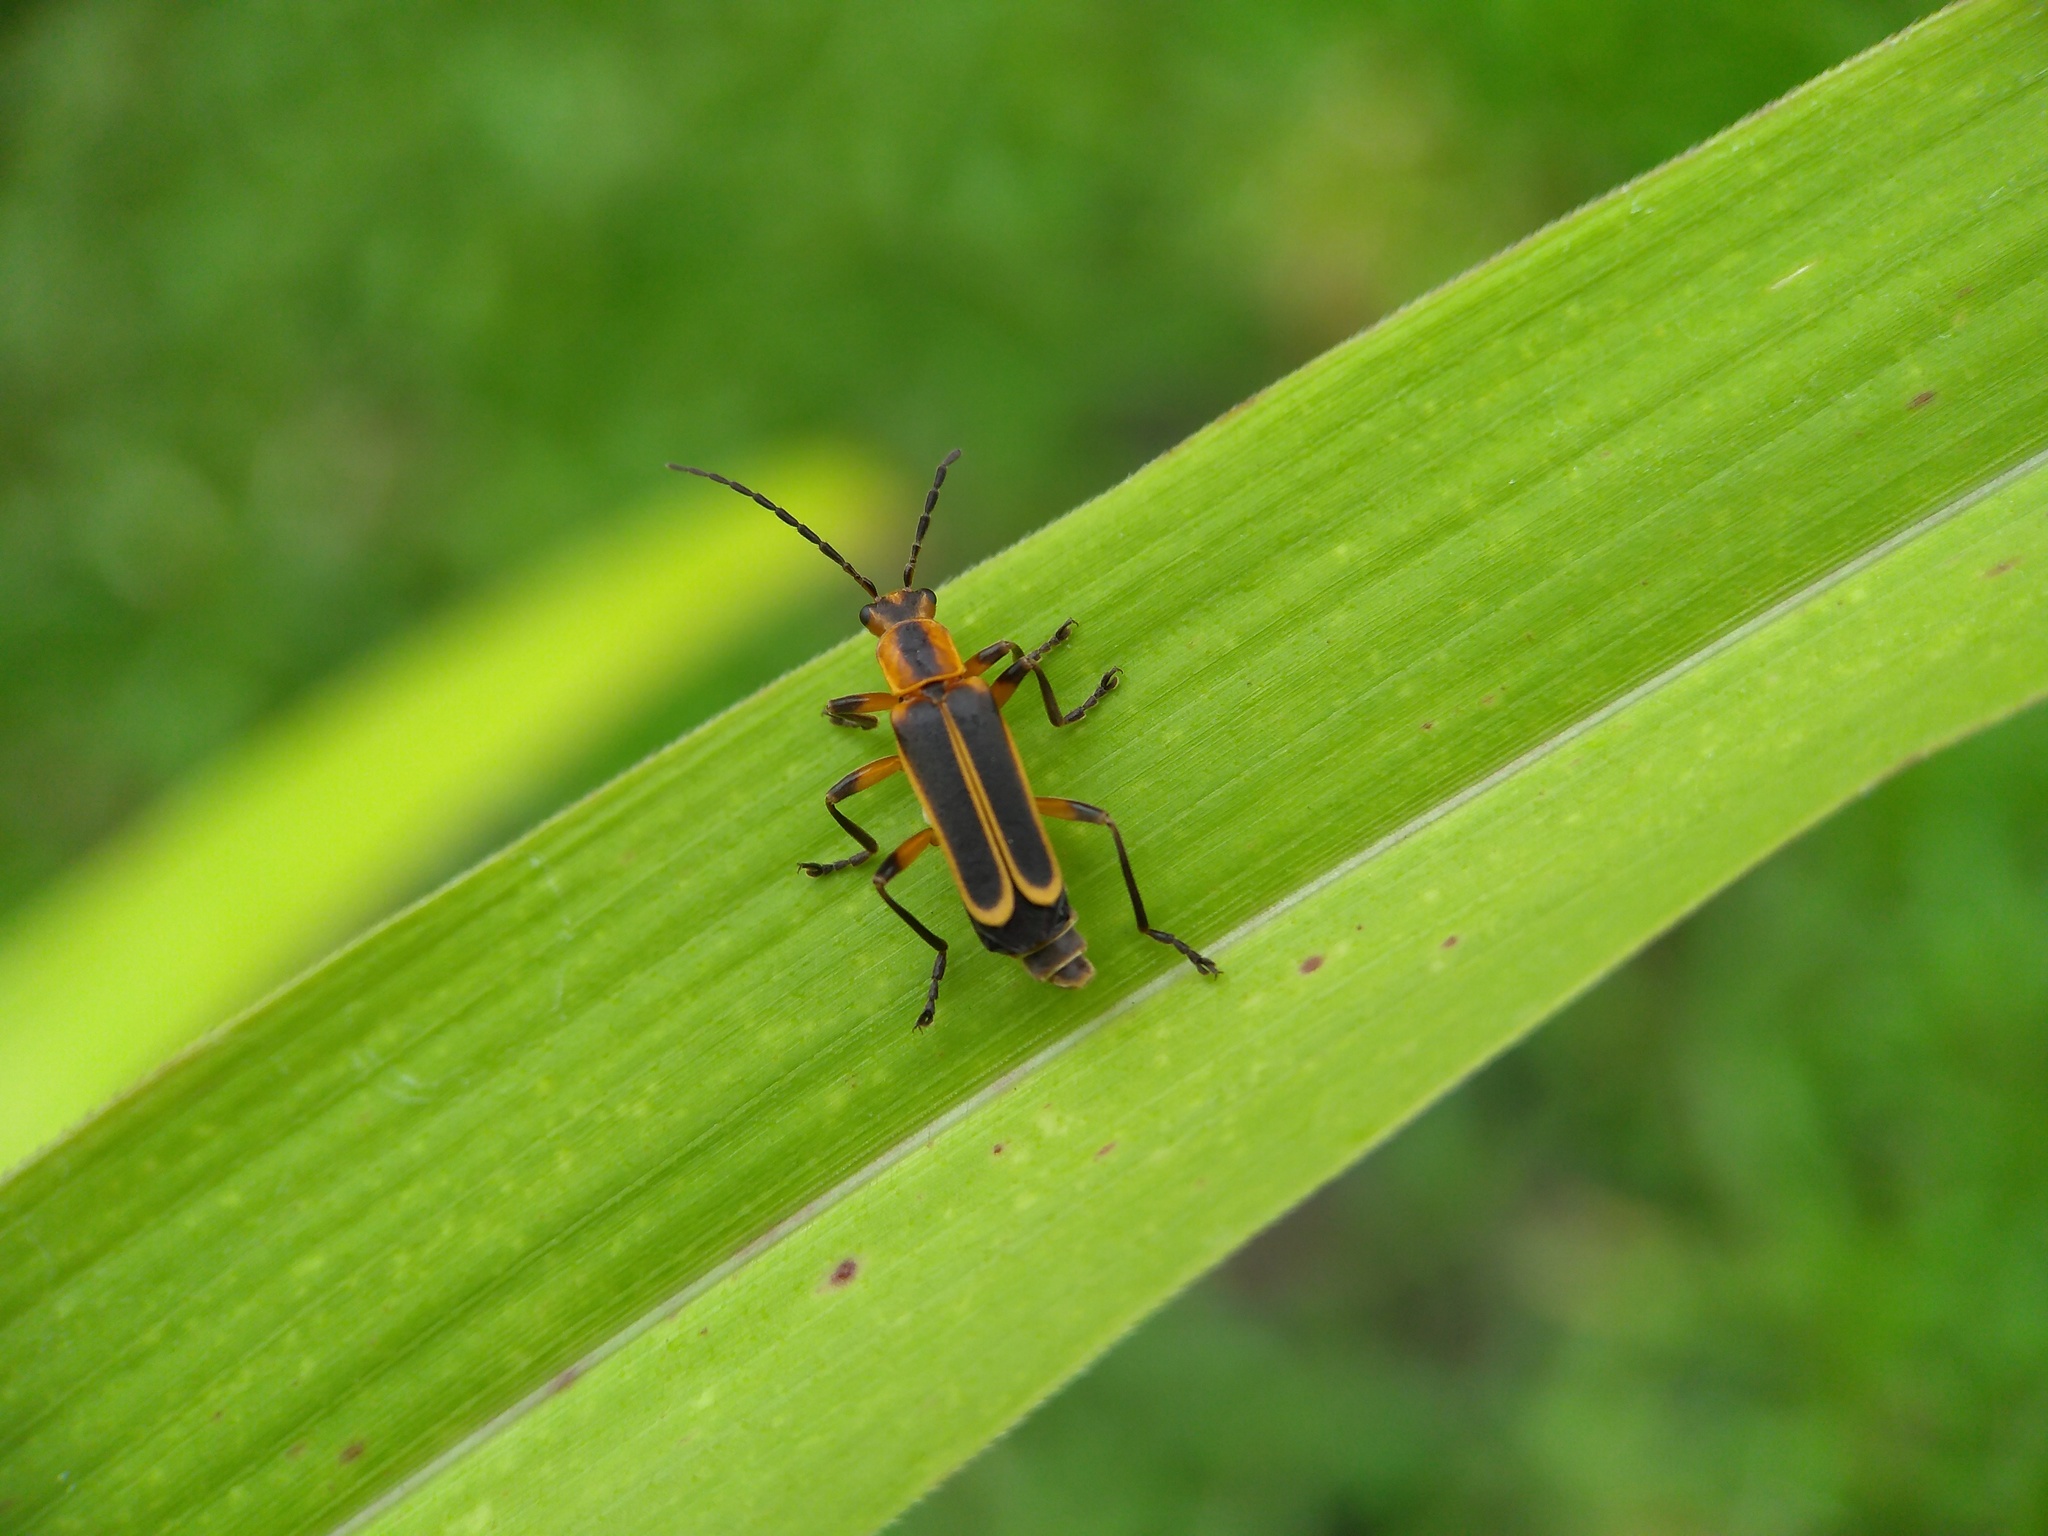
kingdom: Animalia
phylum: Arthropoda
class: Insecta
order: Coleoptera
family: Cantharidae
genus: Chauliognathus
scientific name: Chauliognathus marginatus
